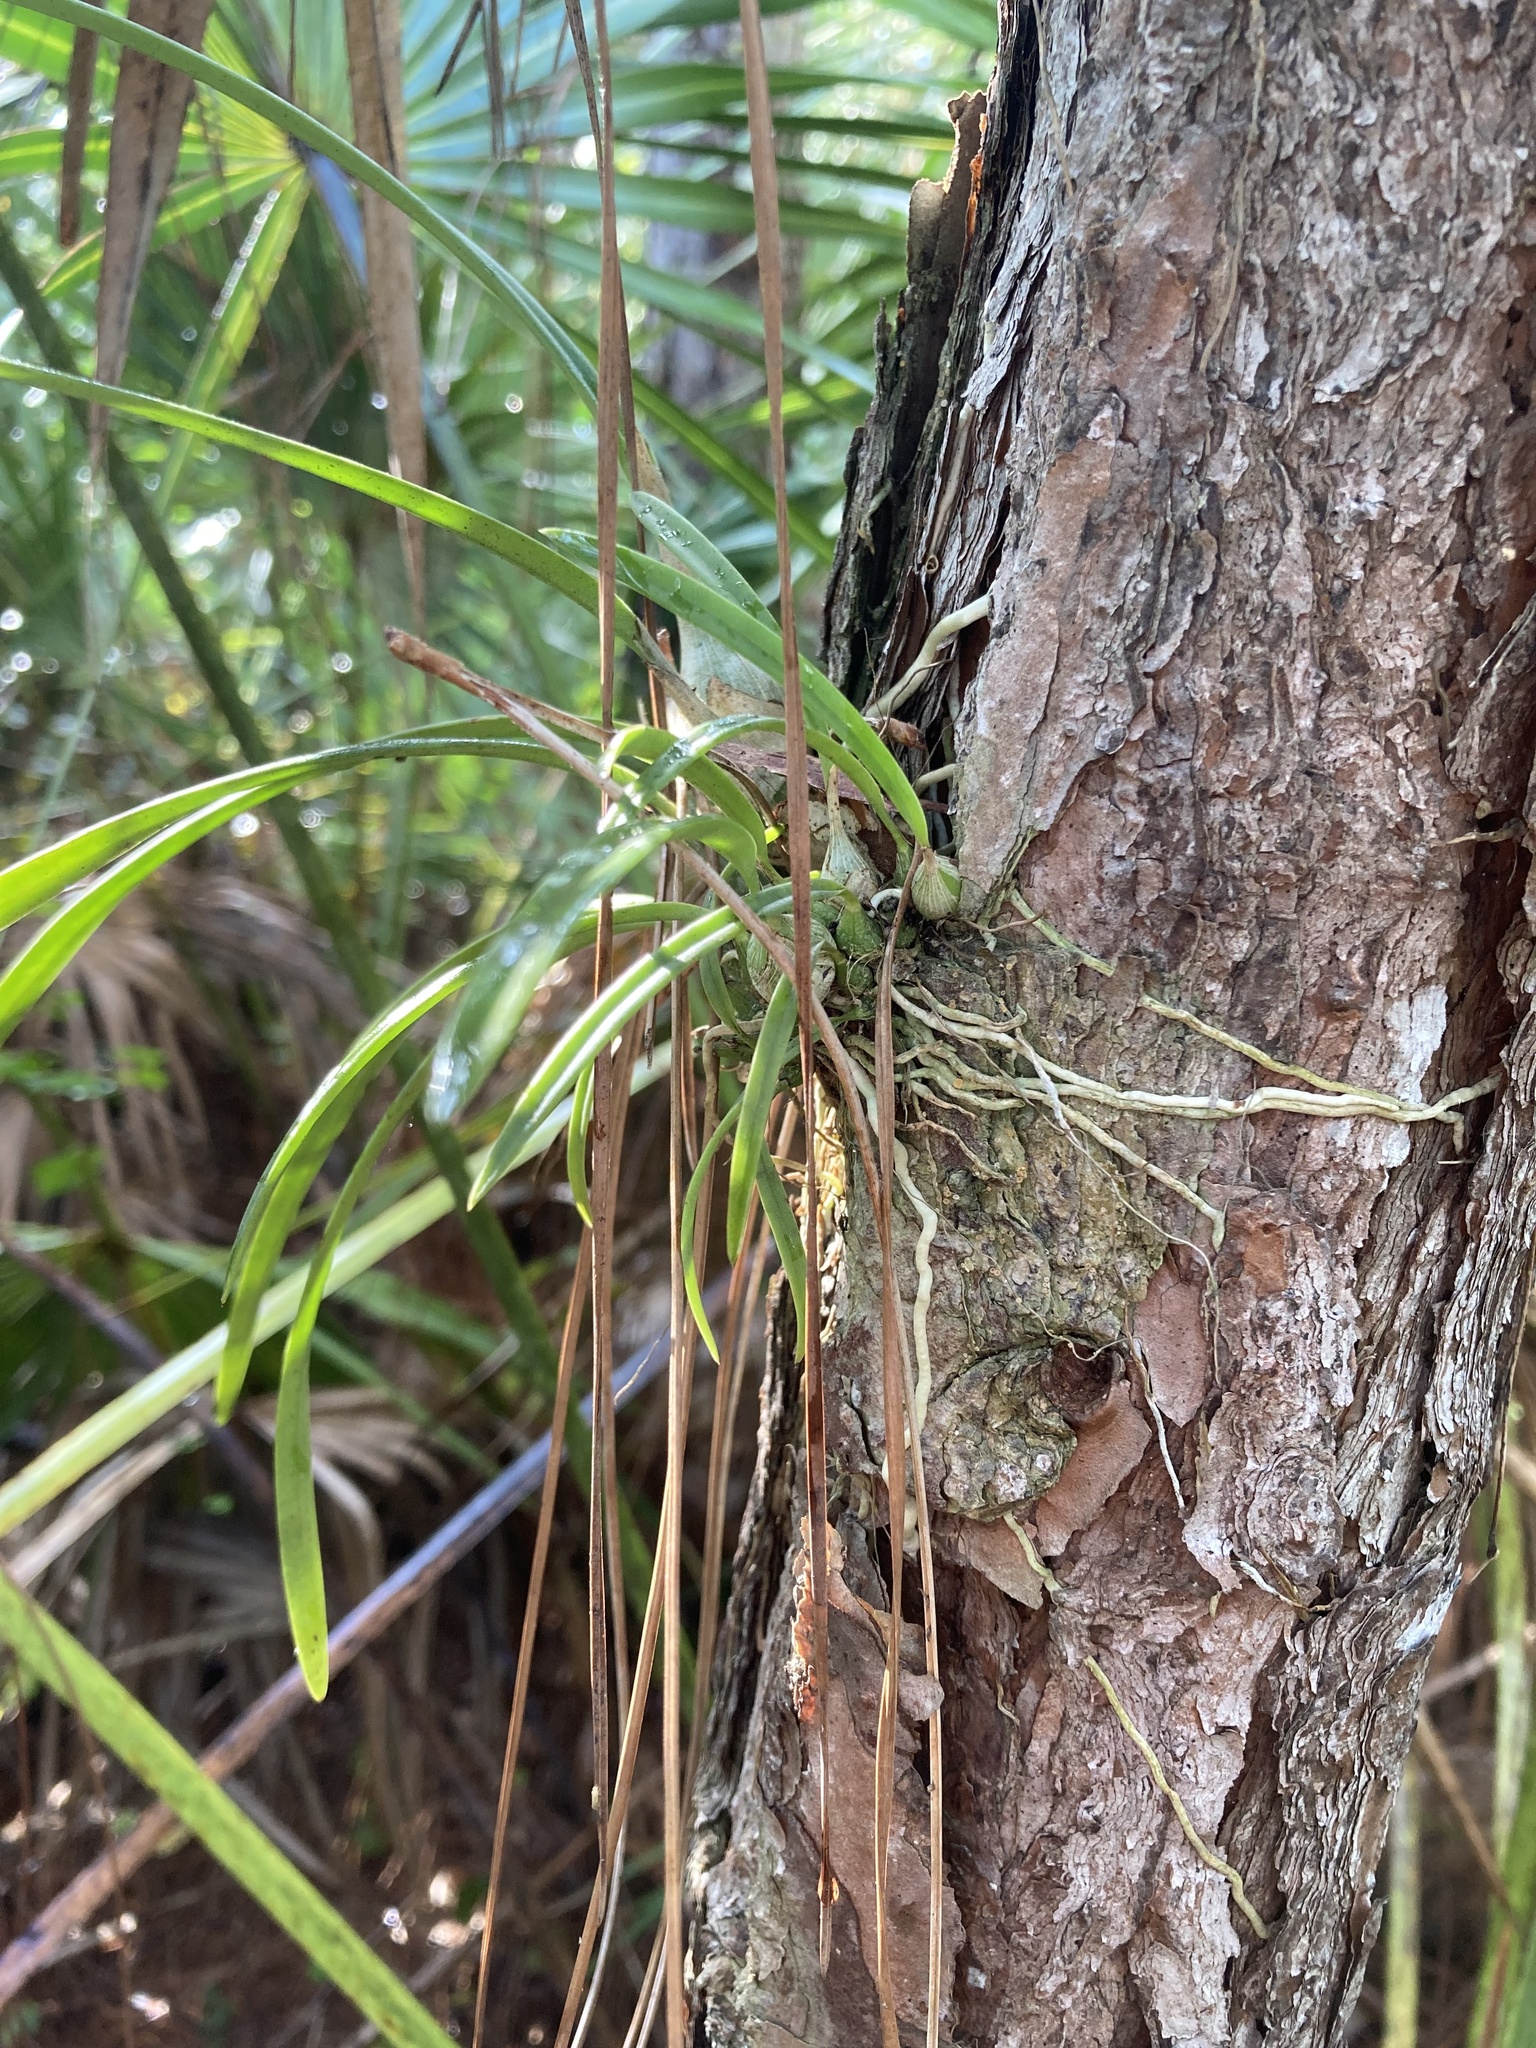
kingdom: Plantae
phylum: Tracheophyta
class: Liliopsida
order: Asparagales
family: Orchidaceae
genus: Encyclia
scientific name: Encyclia tampensis
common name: Florida butterfly orchid
